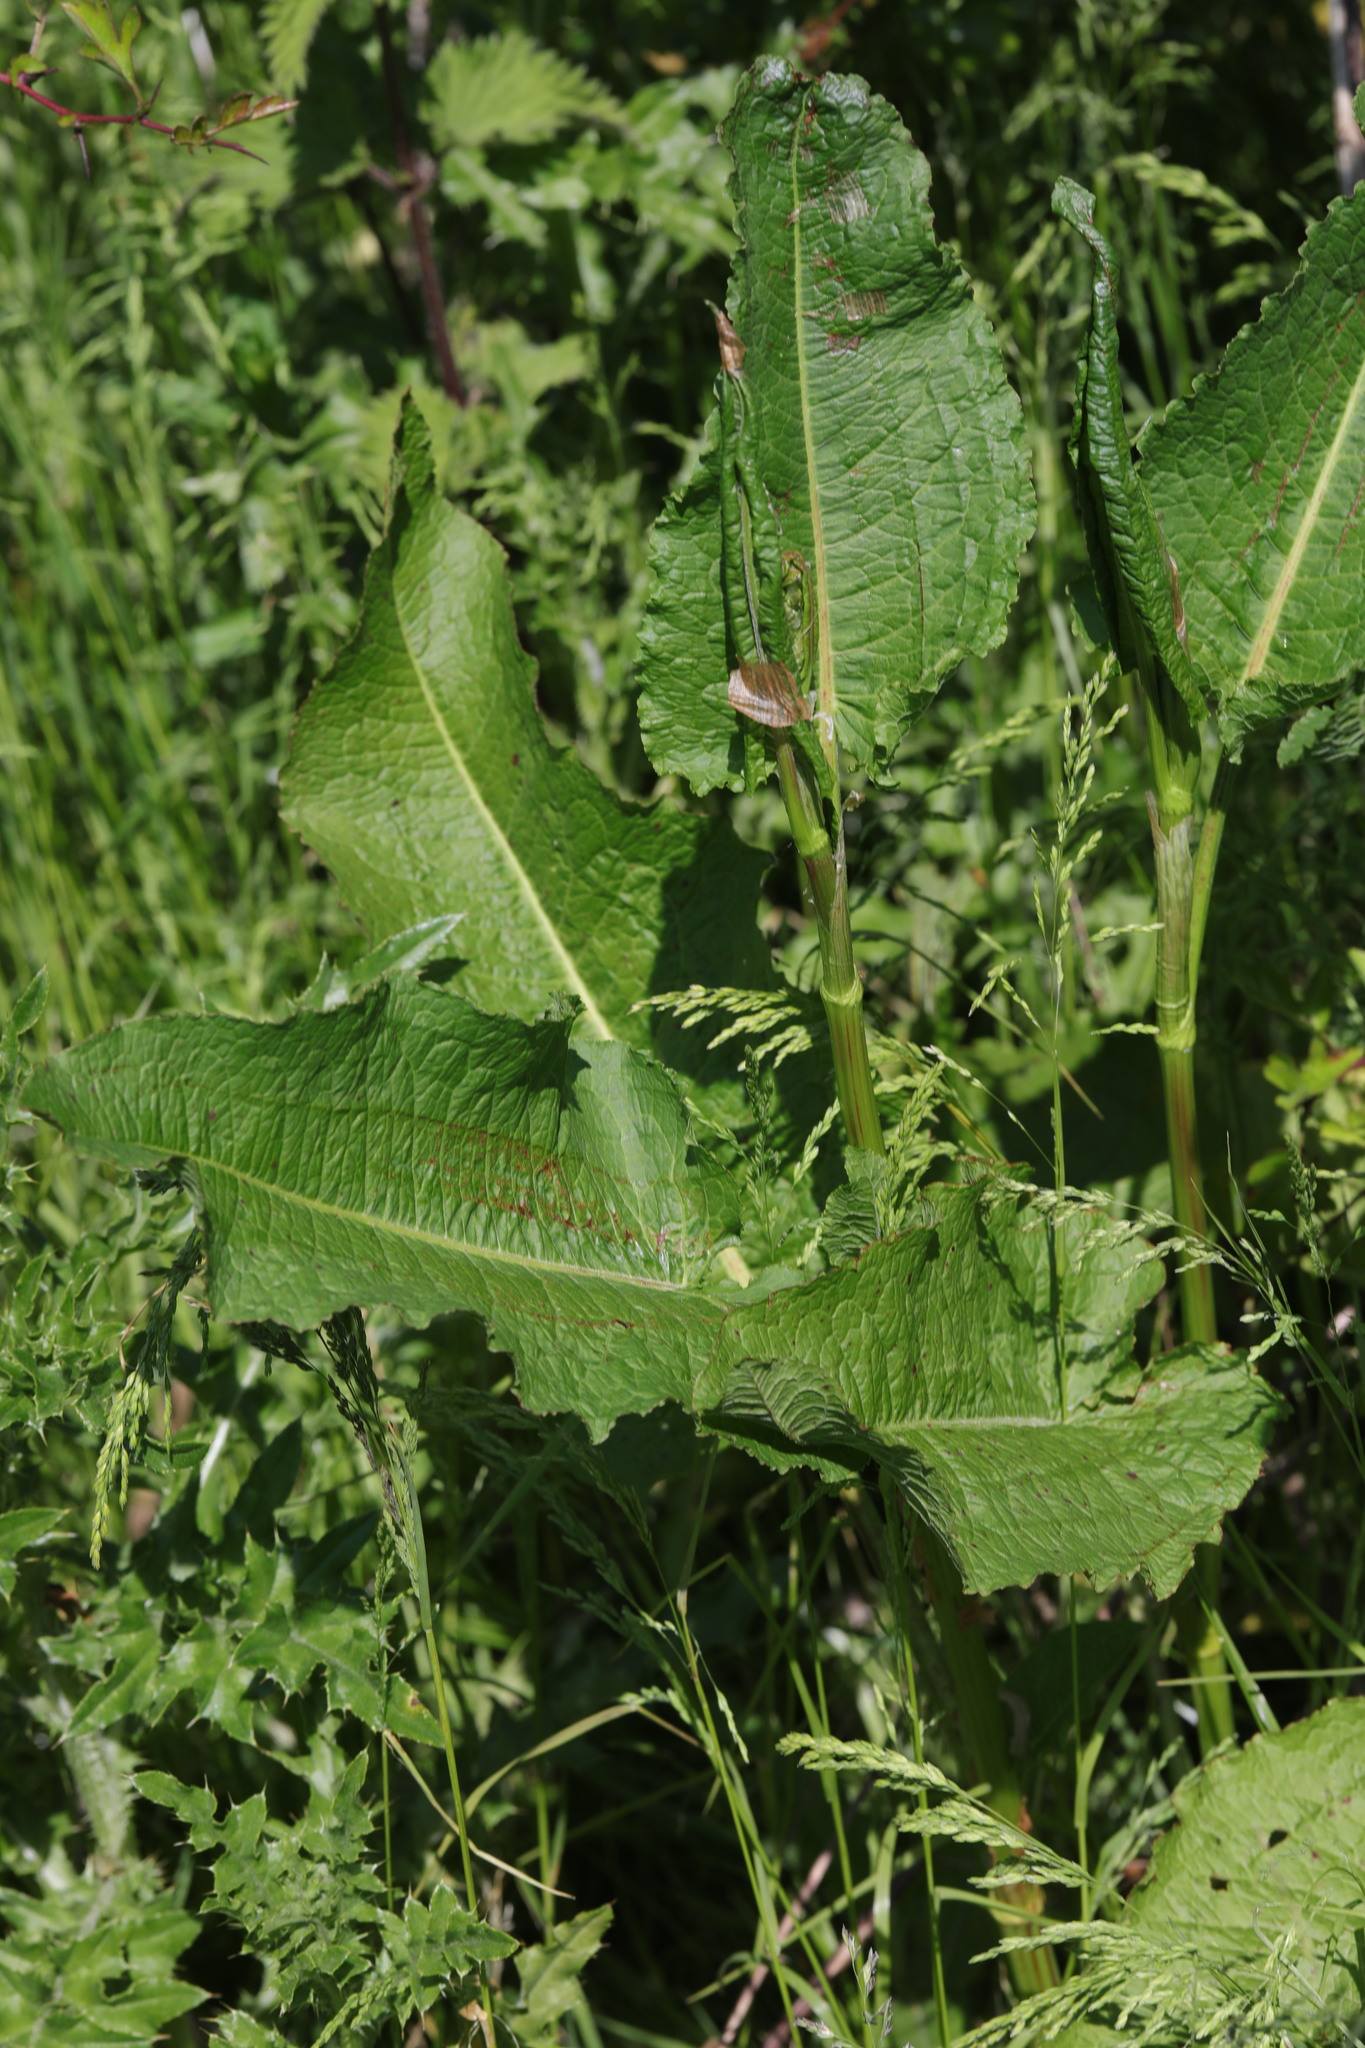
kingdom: Plantae
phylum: Tracheophyta
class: Magnoliopsida
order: Caryophyllales
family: Polygonaceae
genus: Rumex
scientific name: Rumex obtusifolius
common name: Bitter dock
